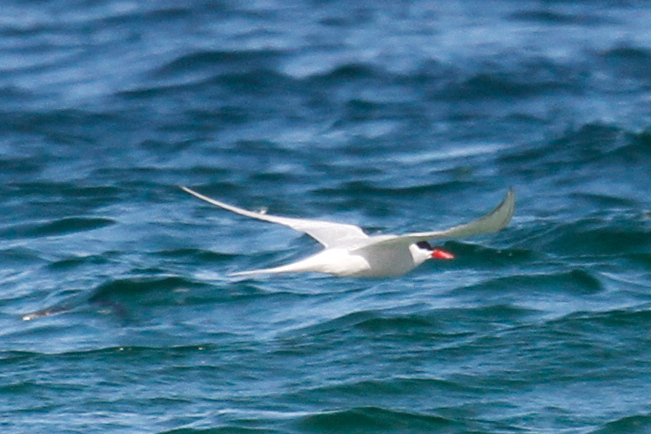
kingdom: Animalia
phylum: Chordata
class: Aves
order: Charadriiformes
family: Laridae
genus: Sterna
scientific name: Sterna hirundinacea
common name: South american tern
